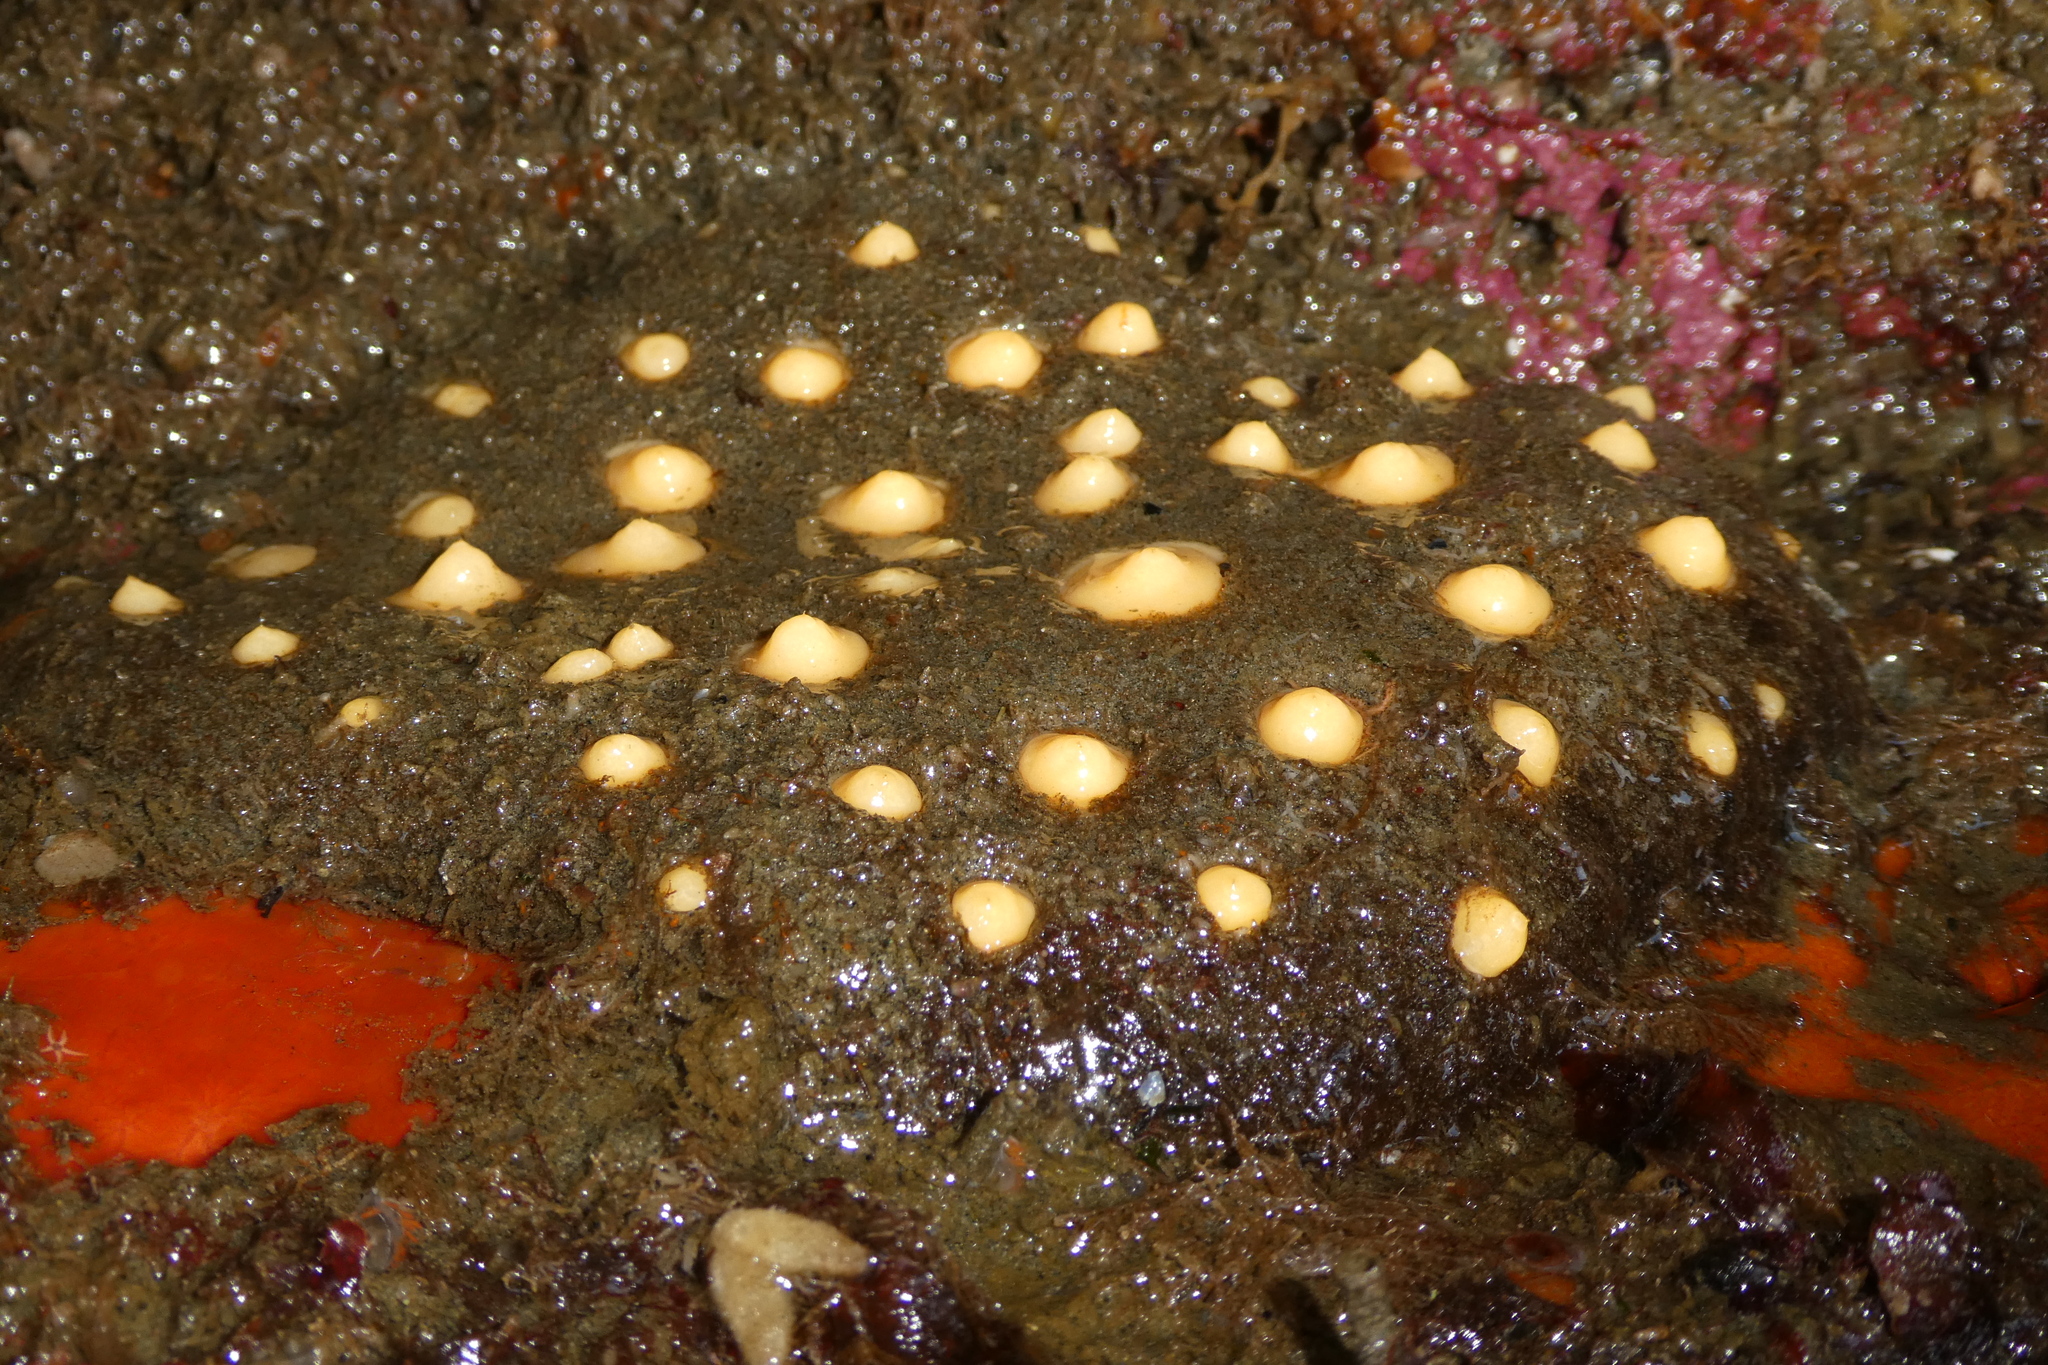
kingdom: Animalia
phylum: Porifera
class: Demospongiae
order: Polymastiida
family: Polymastiidae
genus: Polymastia
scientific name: Polymastia pachymastia
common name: Aggregated nipple horny sponge
